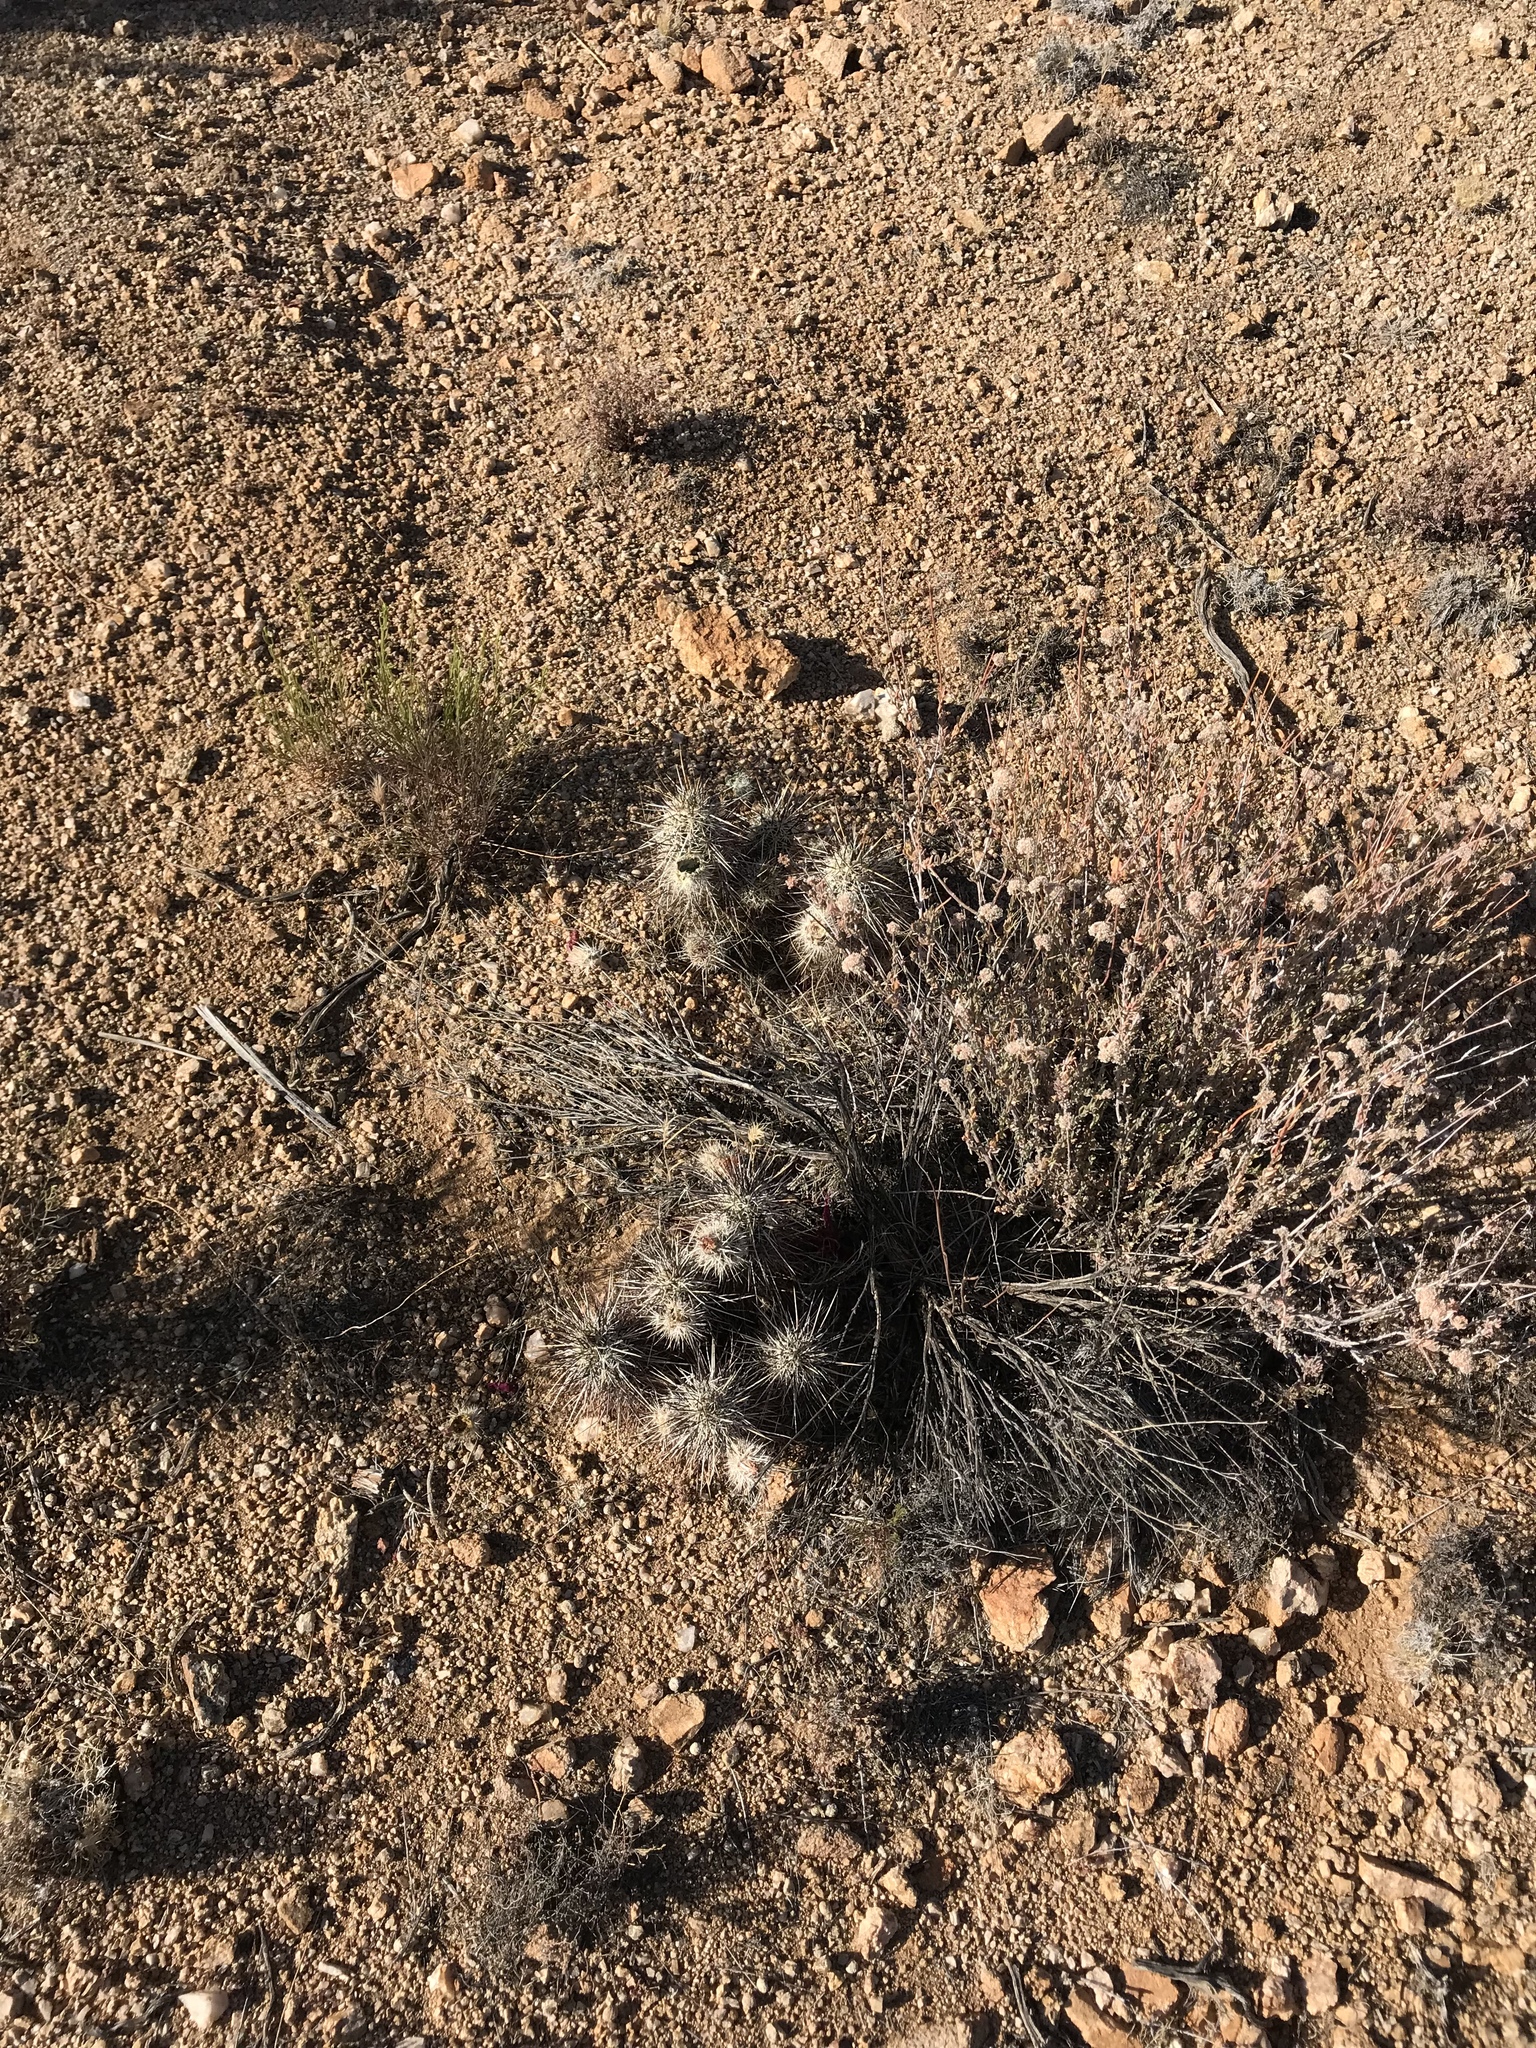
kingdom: Plantae
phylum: Tracheophyta
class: Magnoliopsida
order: Caryophyllales
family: Cactaceae
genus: Echinocereus
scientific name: Echinocereus engelmannii
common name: Engelmann's hedgehog cactus
